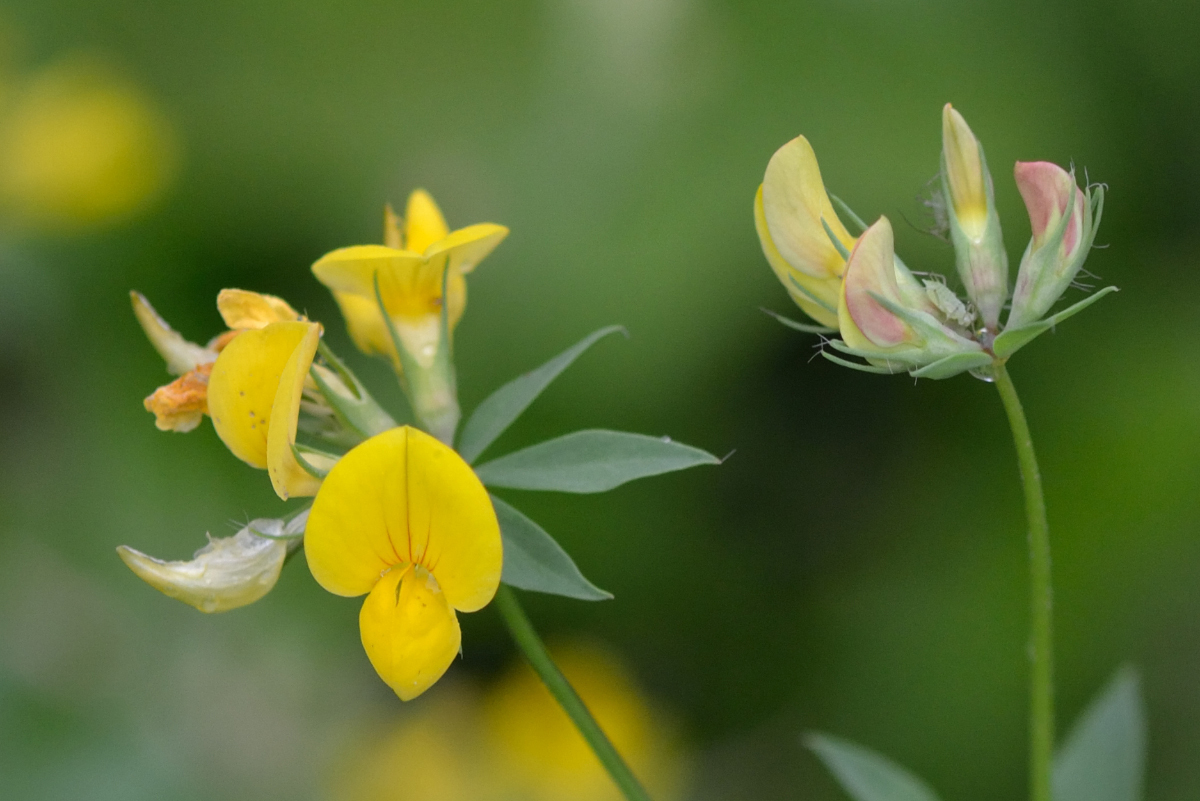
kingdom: Plantae
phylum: Tracheophyta
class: Magnoliopsida
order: Fabales
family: Fabaceae
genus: Lotus
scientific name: Lotus corniculatus
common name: Common bird's-foot-trefoil
